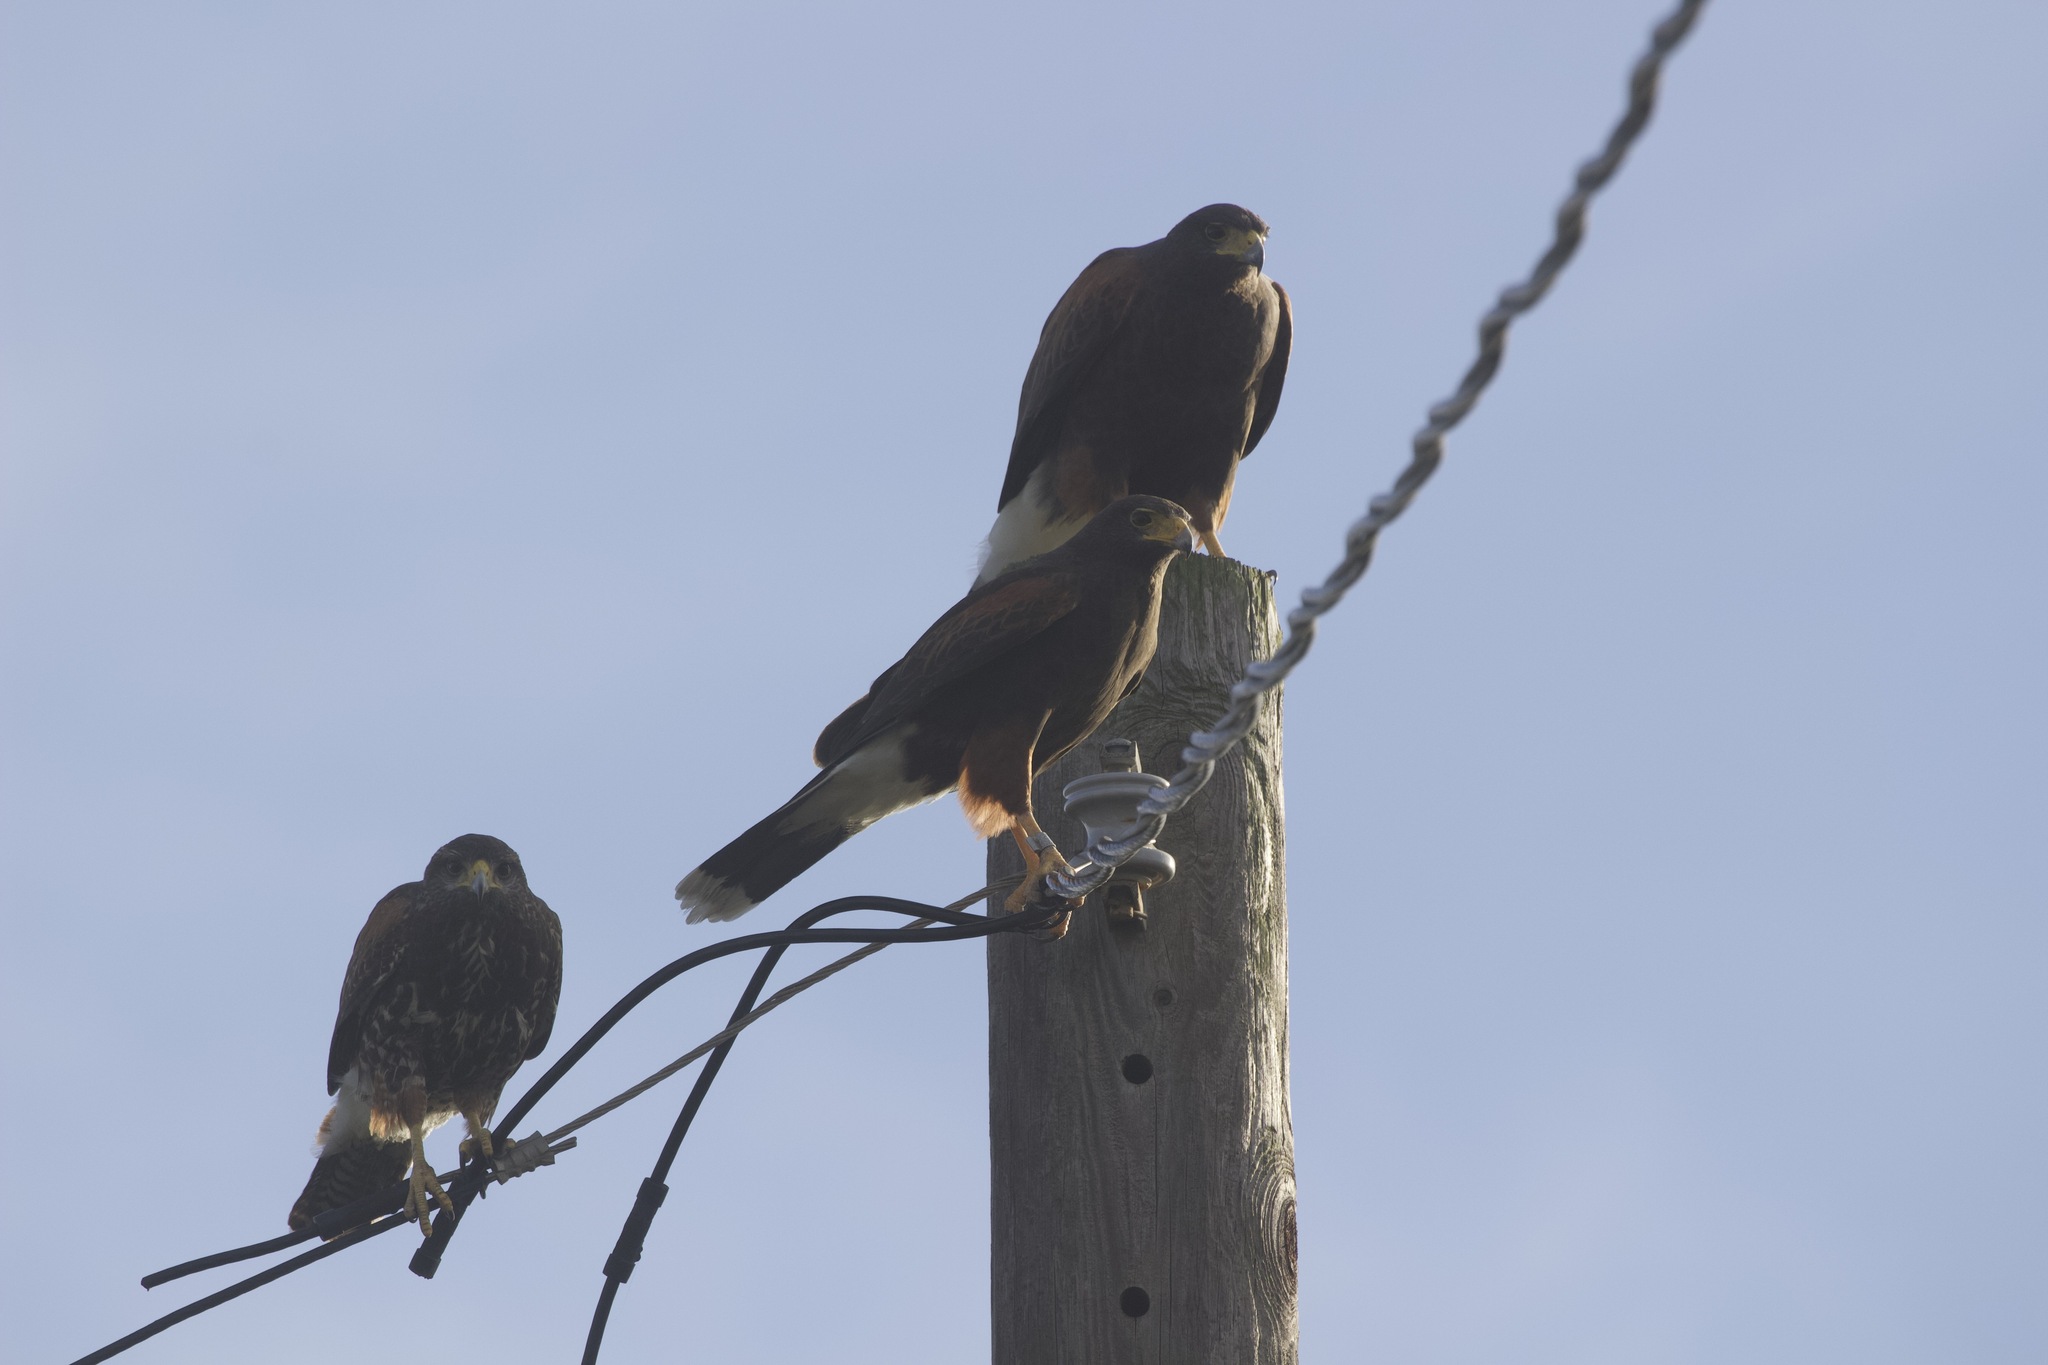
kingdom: Animalia
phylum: Chordata
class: Aves
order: Accipitriformes
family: Accipitridae
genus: Parabuteo
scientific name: Parabuteo unicinctus
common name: Harris's hawk
